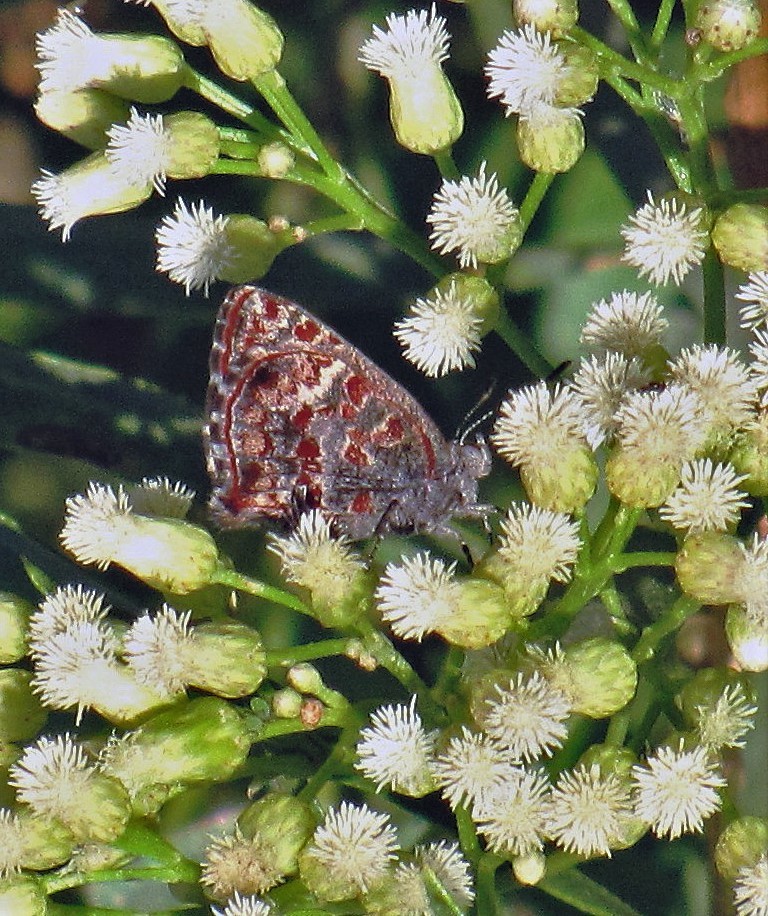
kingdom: Animalia
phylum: Arthropoda
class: Insecta
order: Lepidoptera
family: Lycaenidae
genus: Ministrymon
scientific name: Ministrymon
